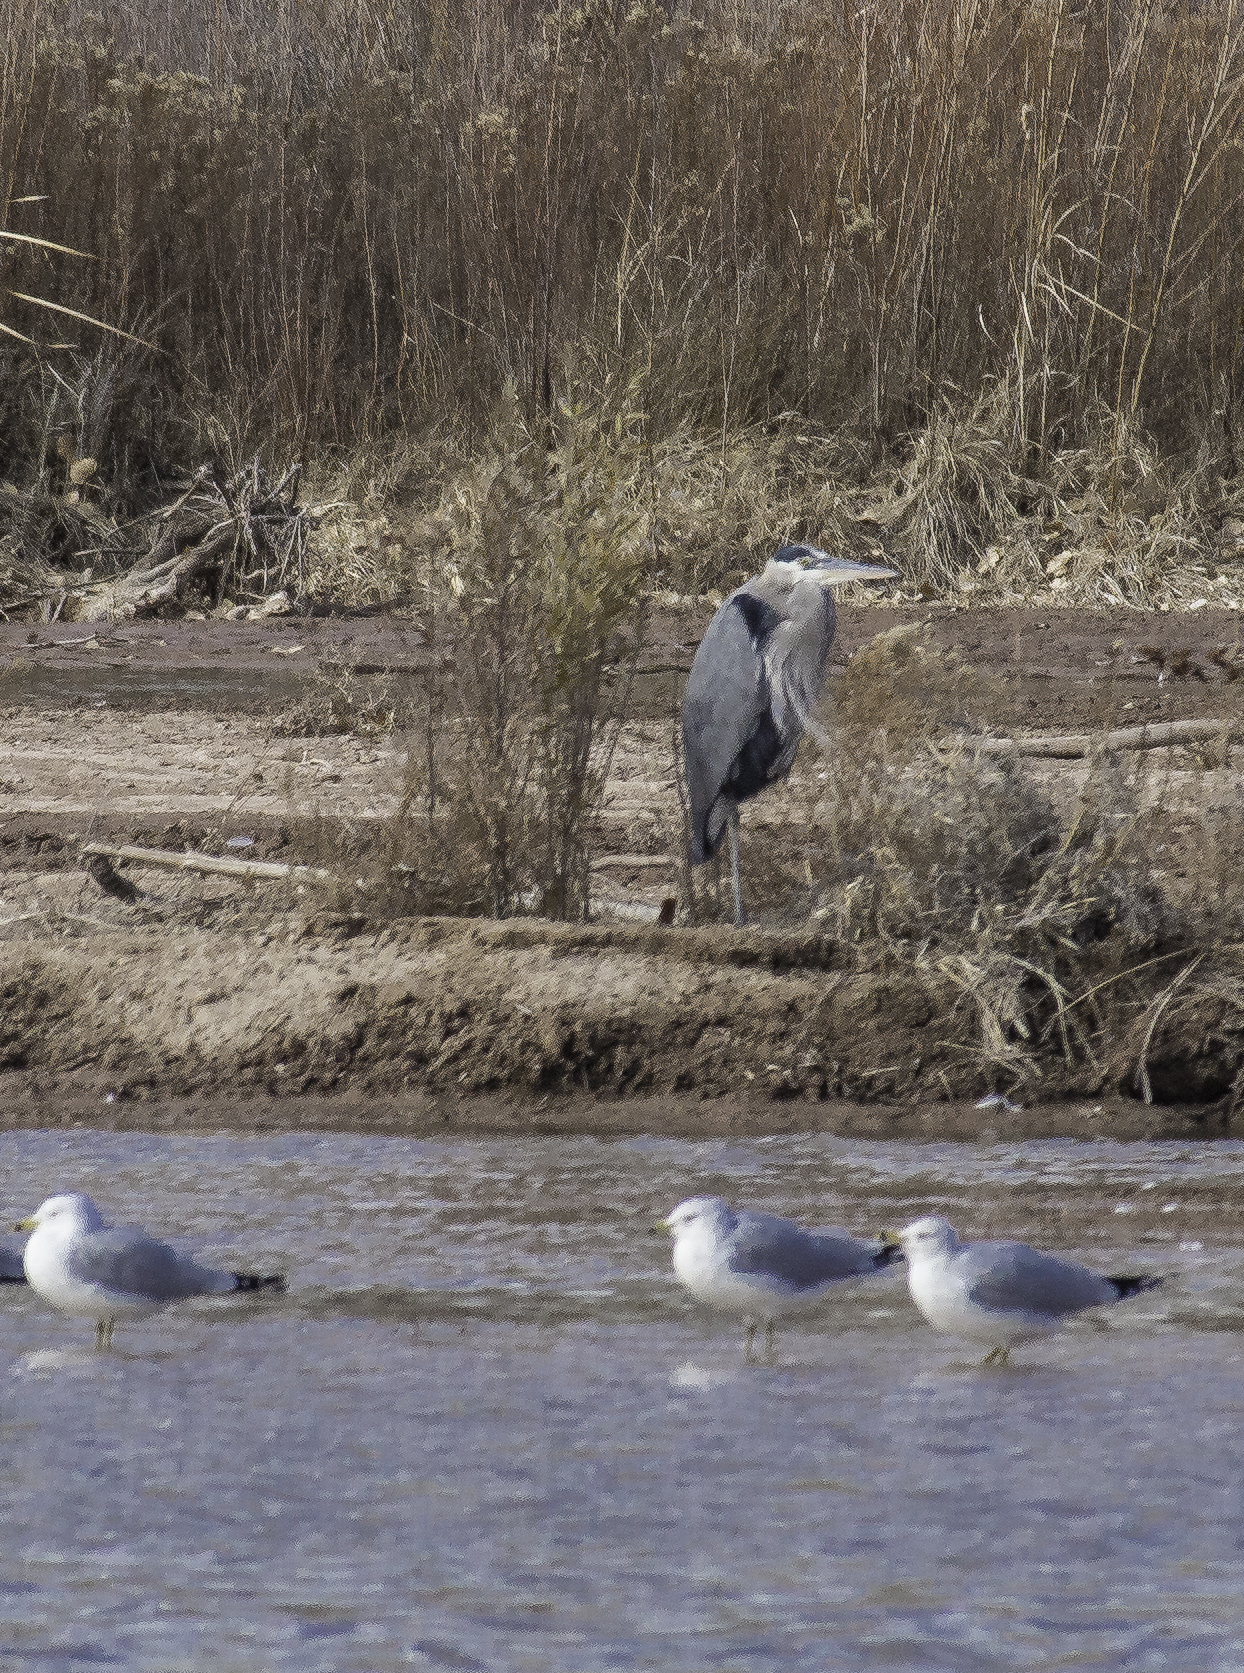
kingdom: Animalia
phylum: Chordata
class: Aves
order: Pelecaniformes
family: Ardeidae
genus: Ardea
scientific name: Ardea herodias
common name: Great blue heron
